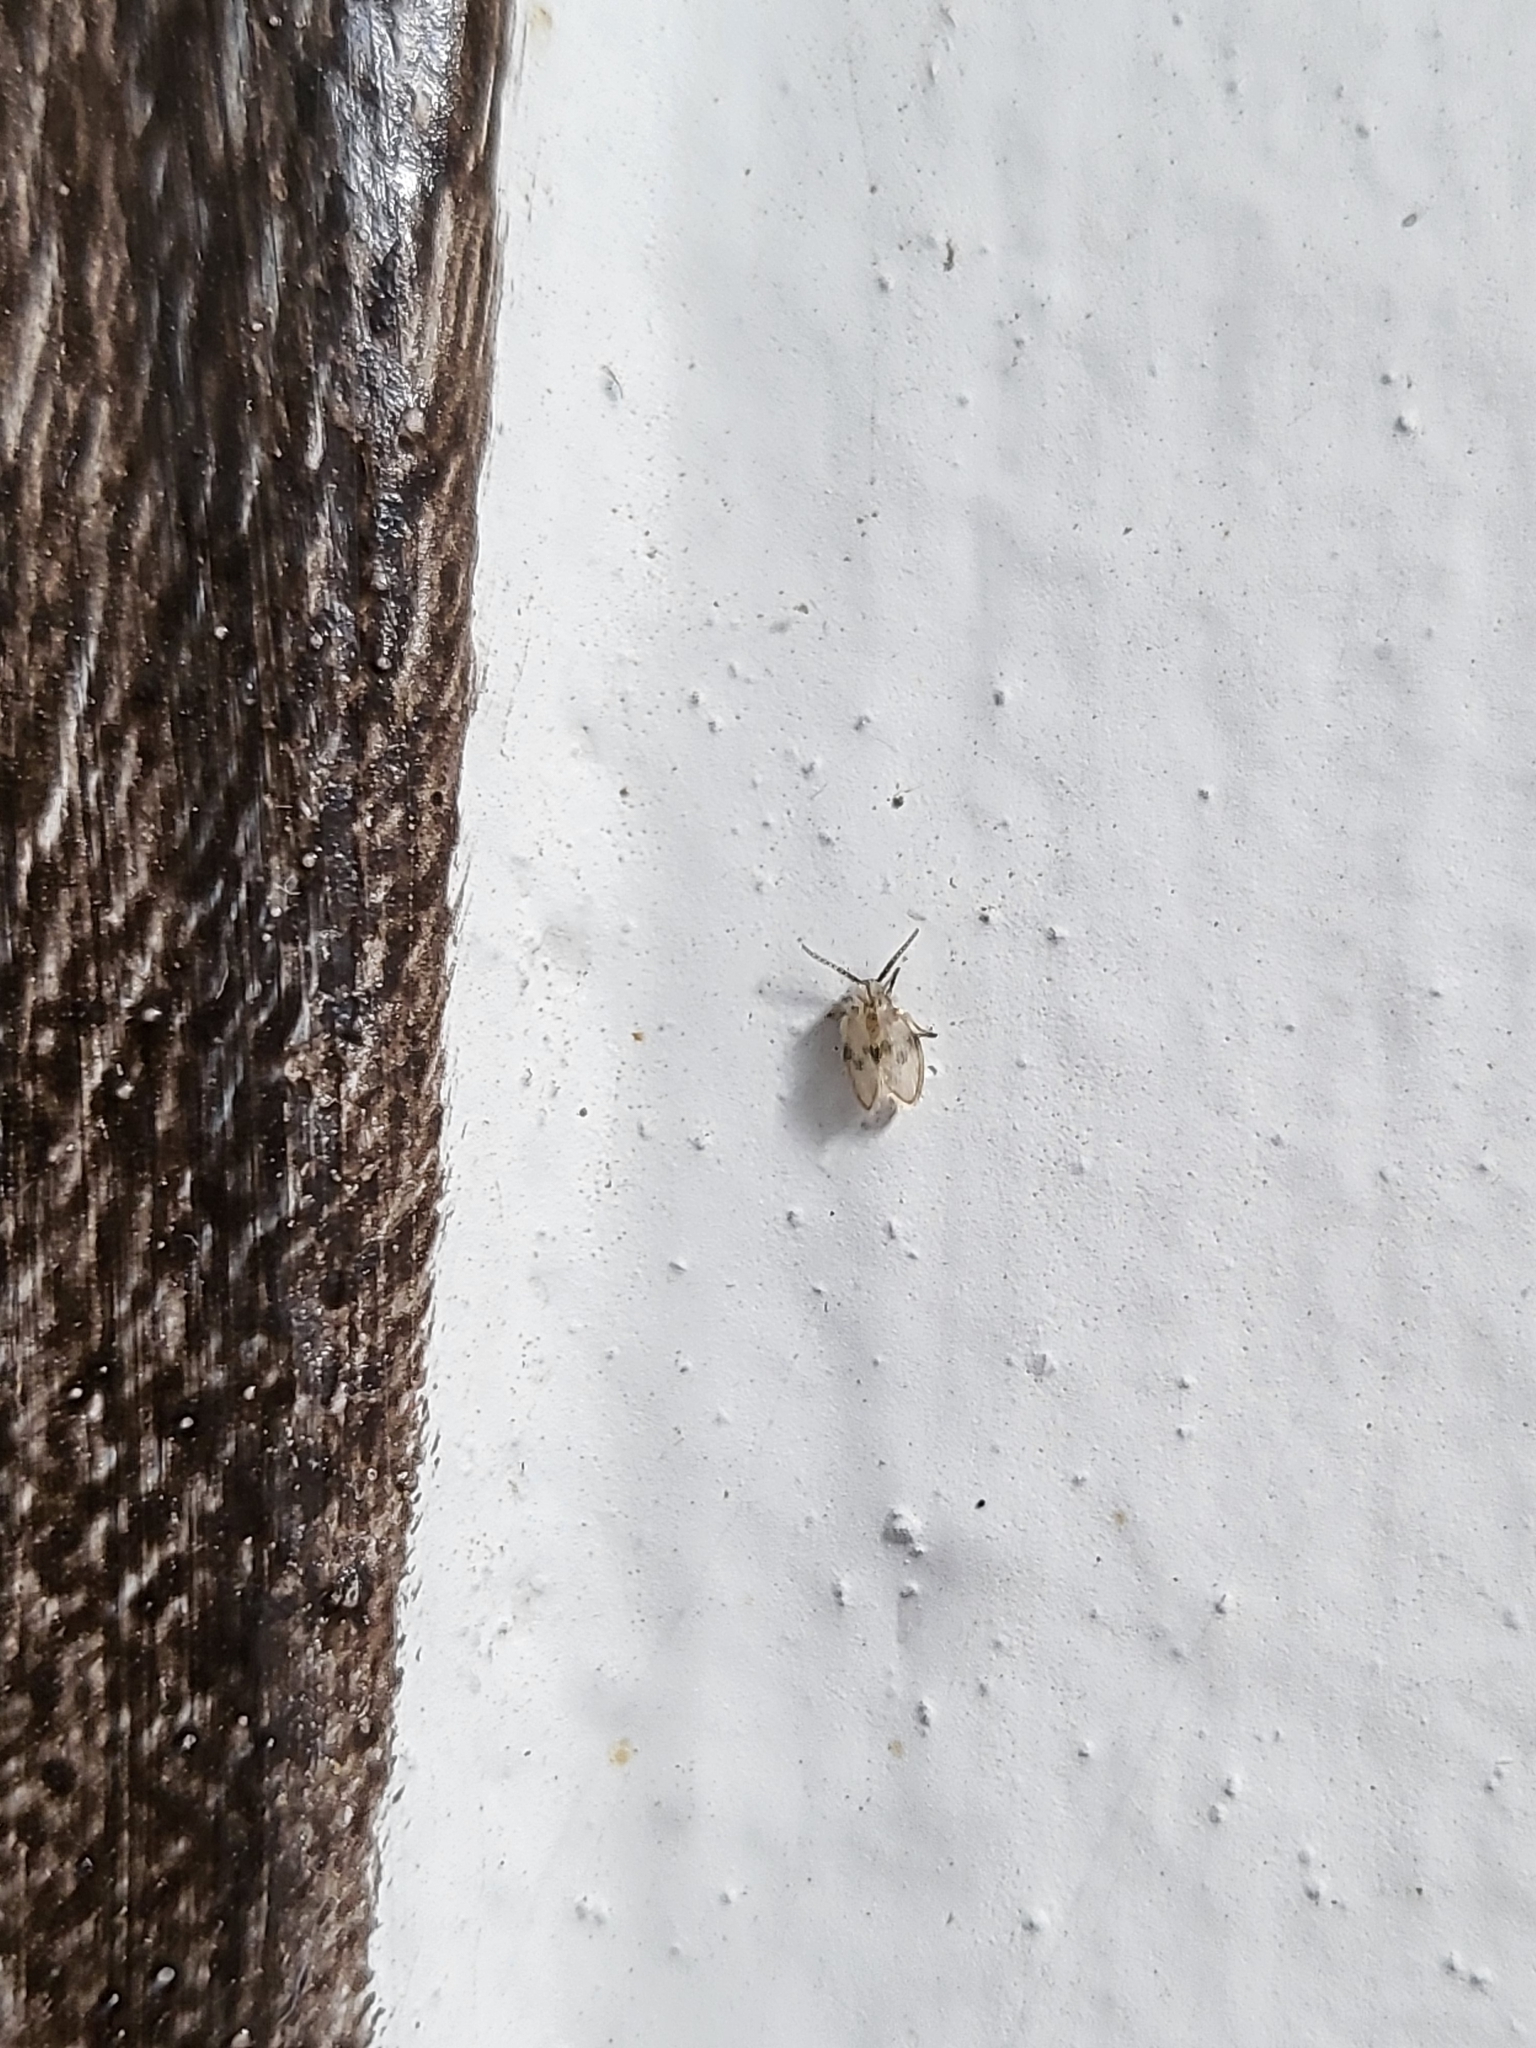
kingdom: Animalia
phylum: Arthropoda
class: Insecta
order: Diptera
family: Psychodidae
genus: Psychoda
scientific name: Psychoda sigma
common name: Moth fly
